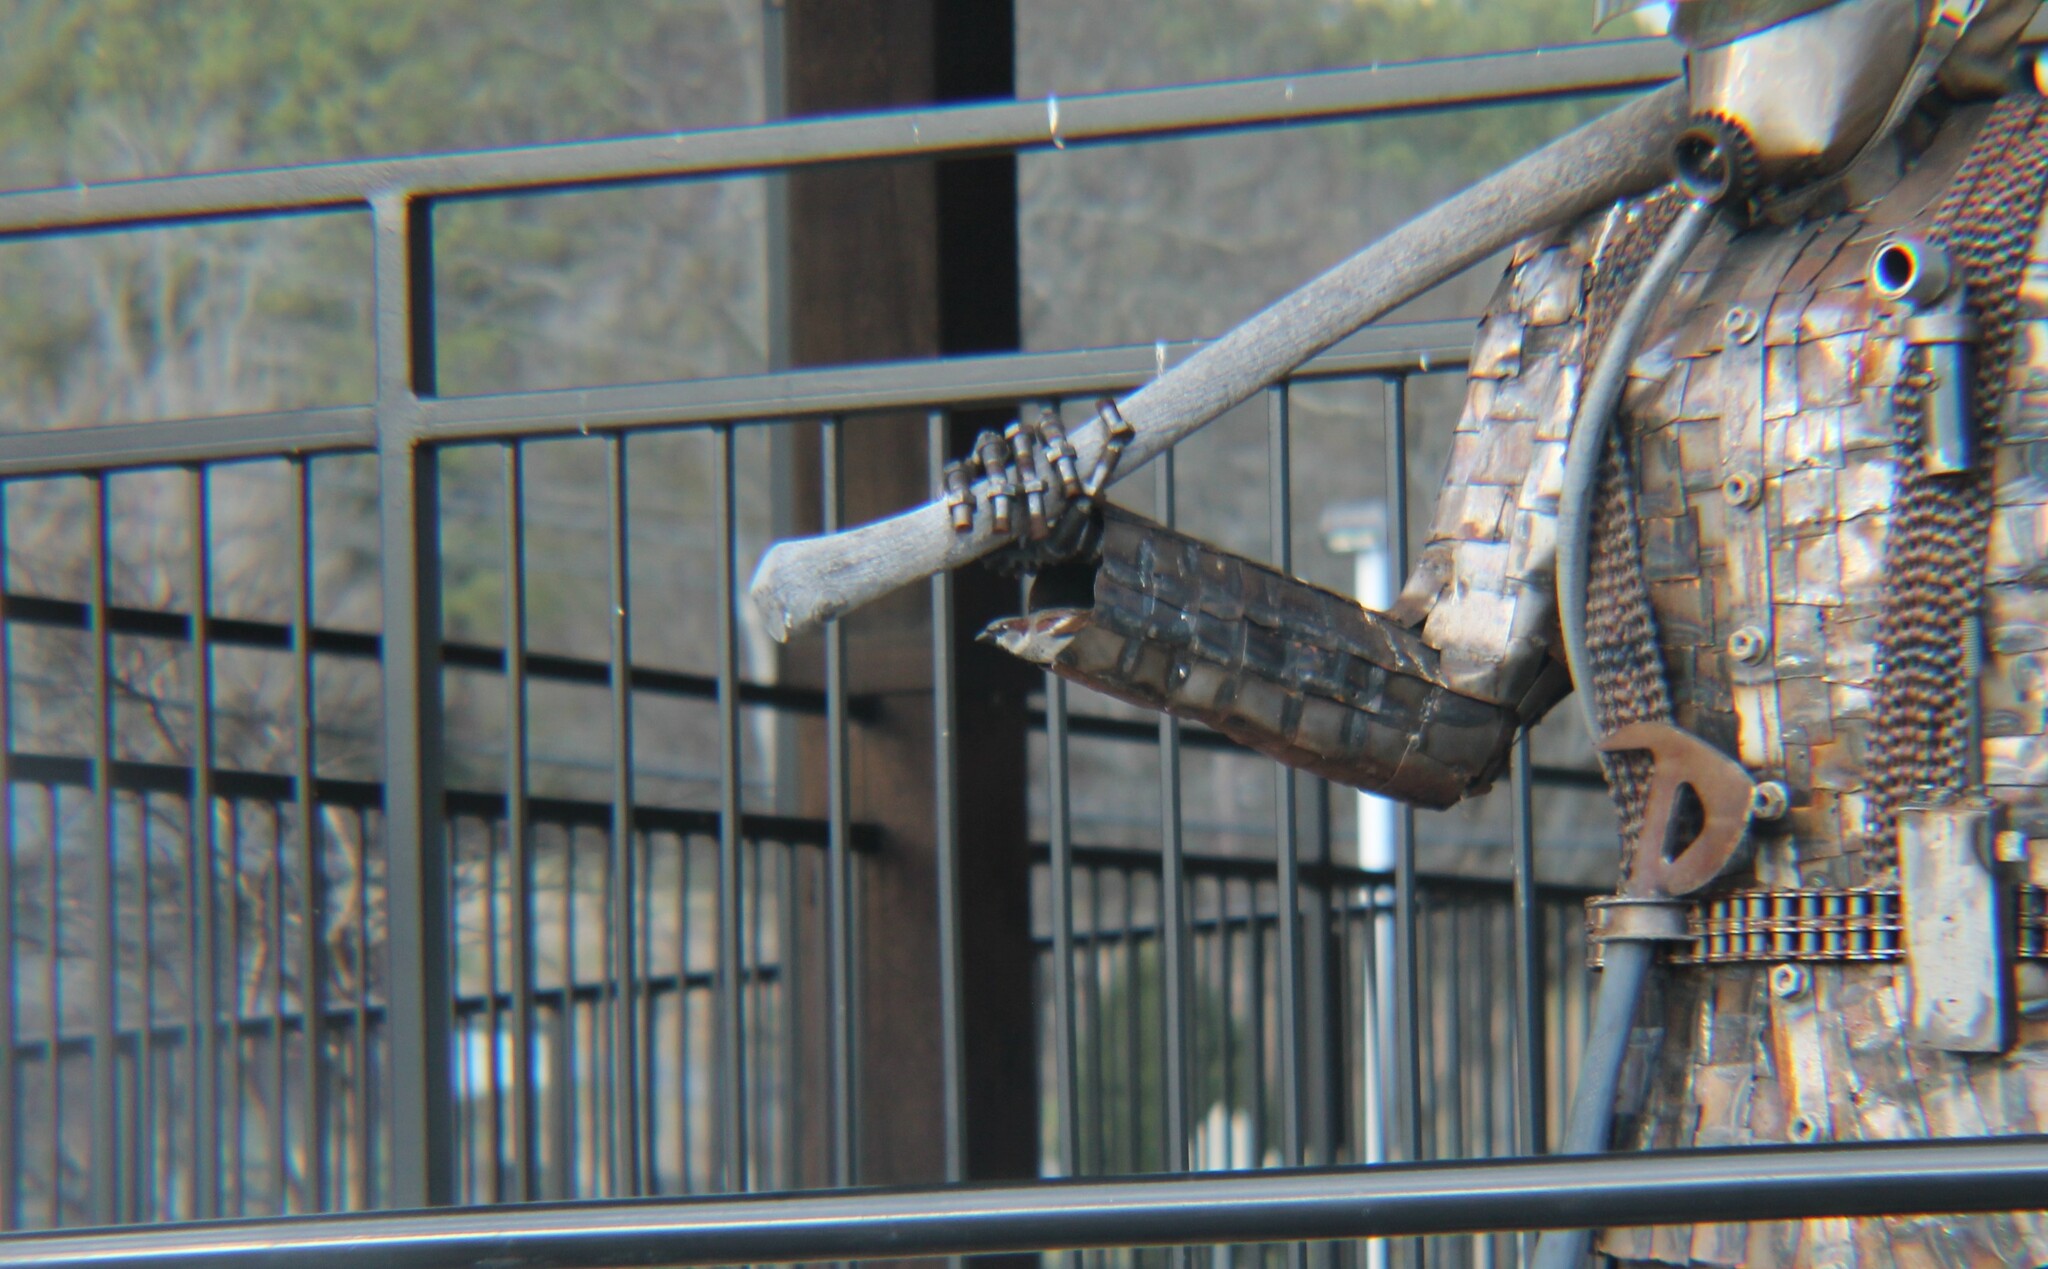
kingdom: Animalia
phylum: Chordata
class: Aves
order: Passeriformes
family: Passeridae
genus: Passer
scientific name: Passer domesticus
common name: House sparrow
